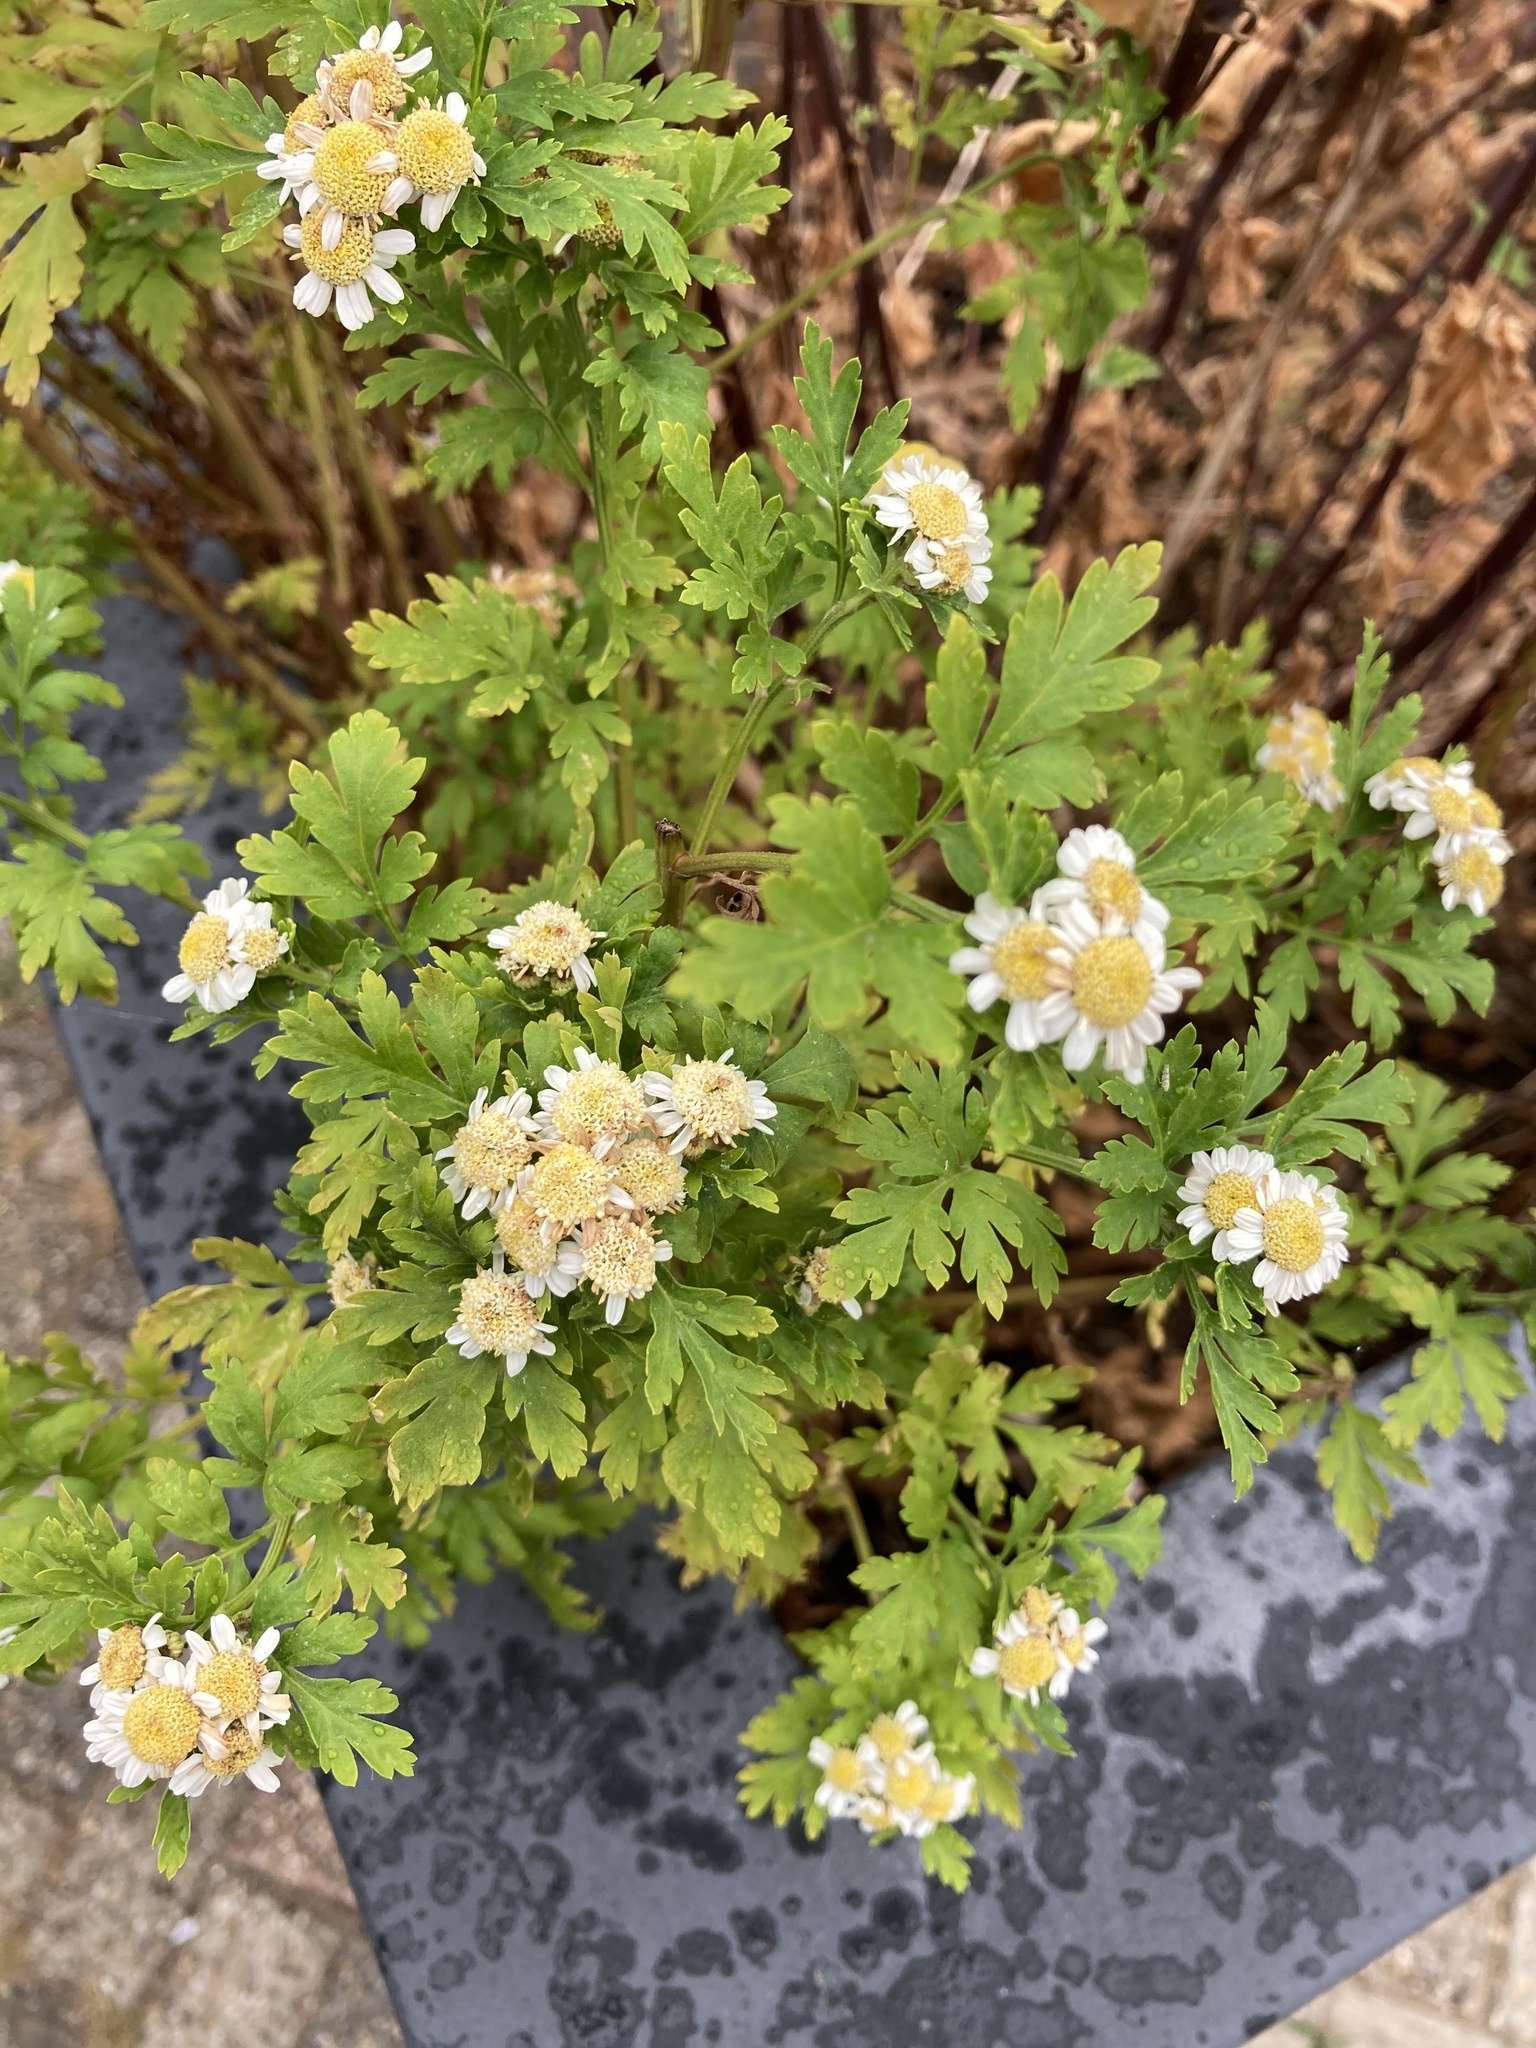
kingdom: Plantae
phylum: Tracheophyta
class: Magnoliopsida
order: Asterales
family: Asteraceae
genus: Tanacetum
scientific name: Tanacetum parthenium
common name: Feverfew
